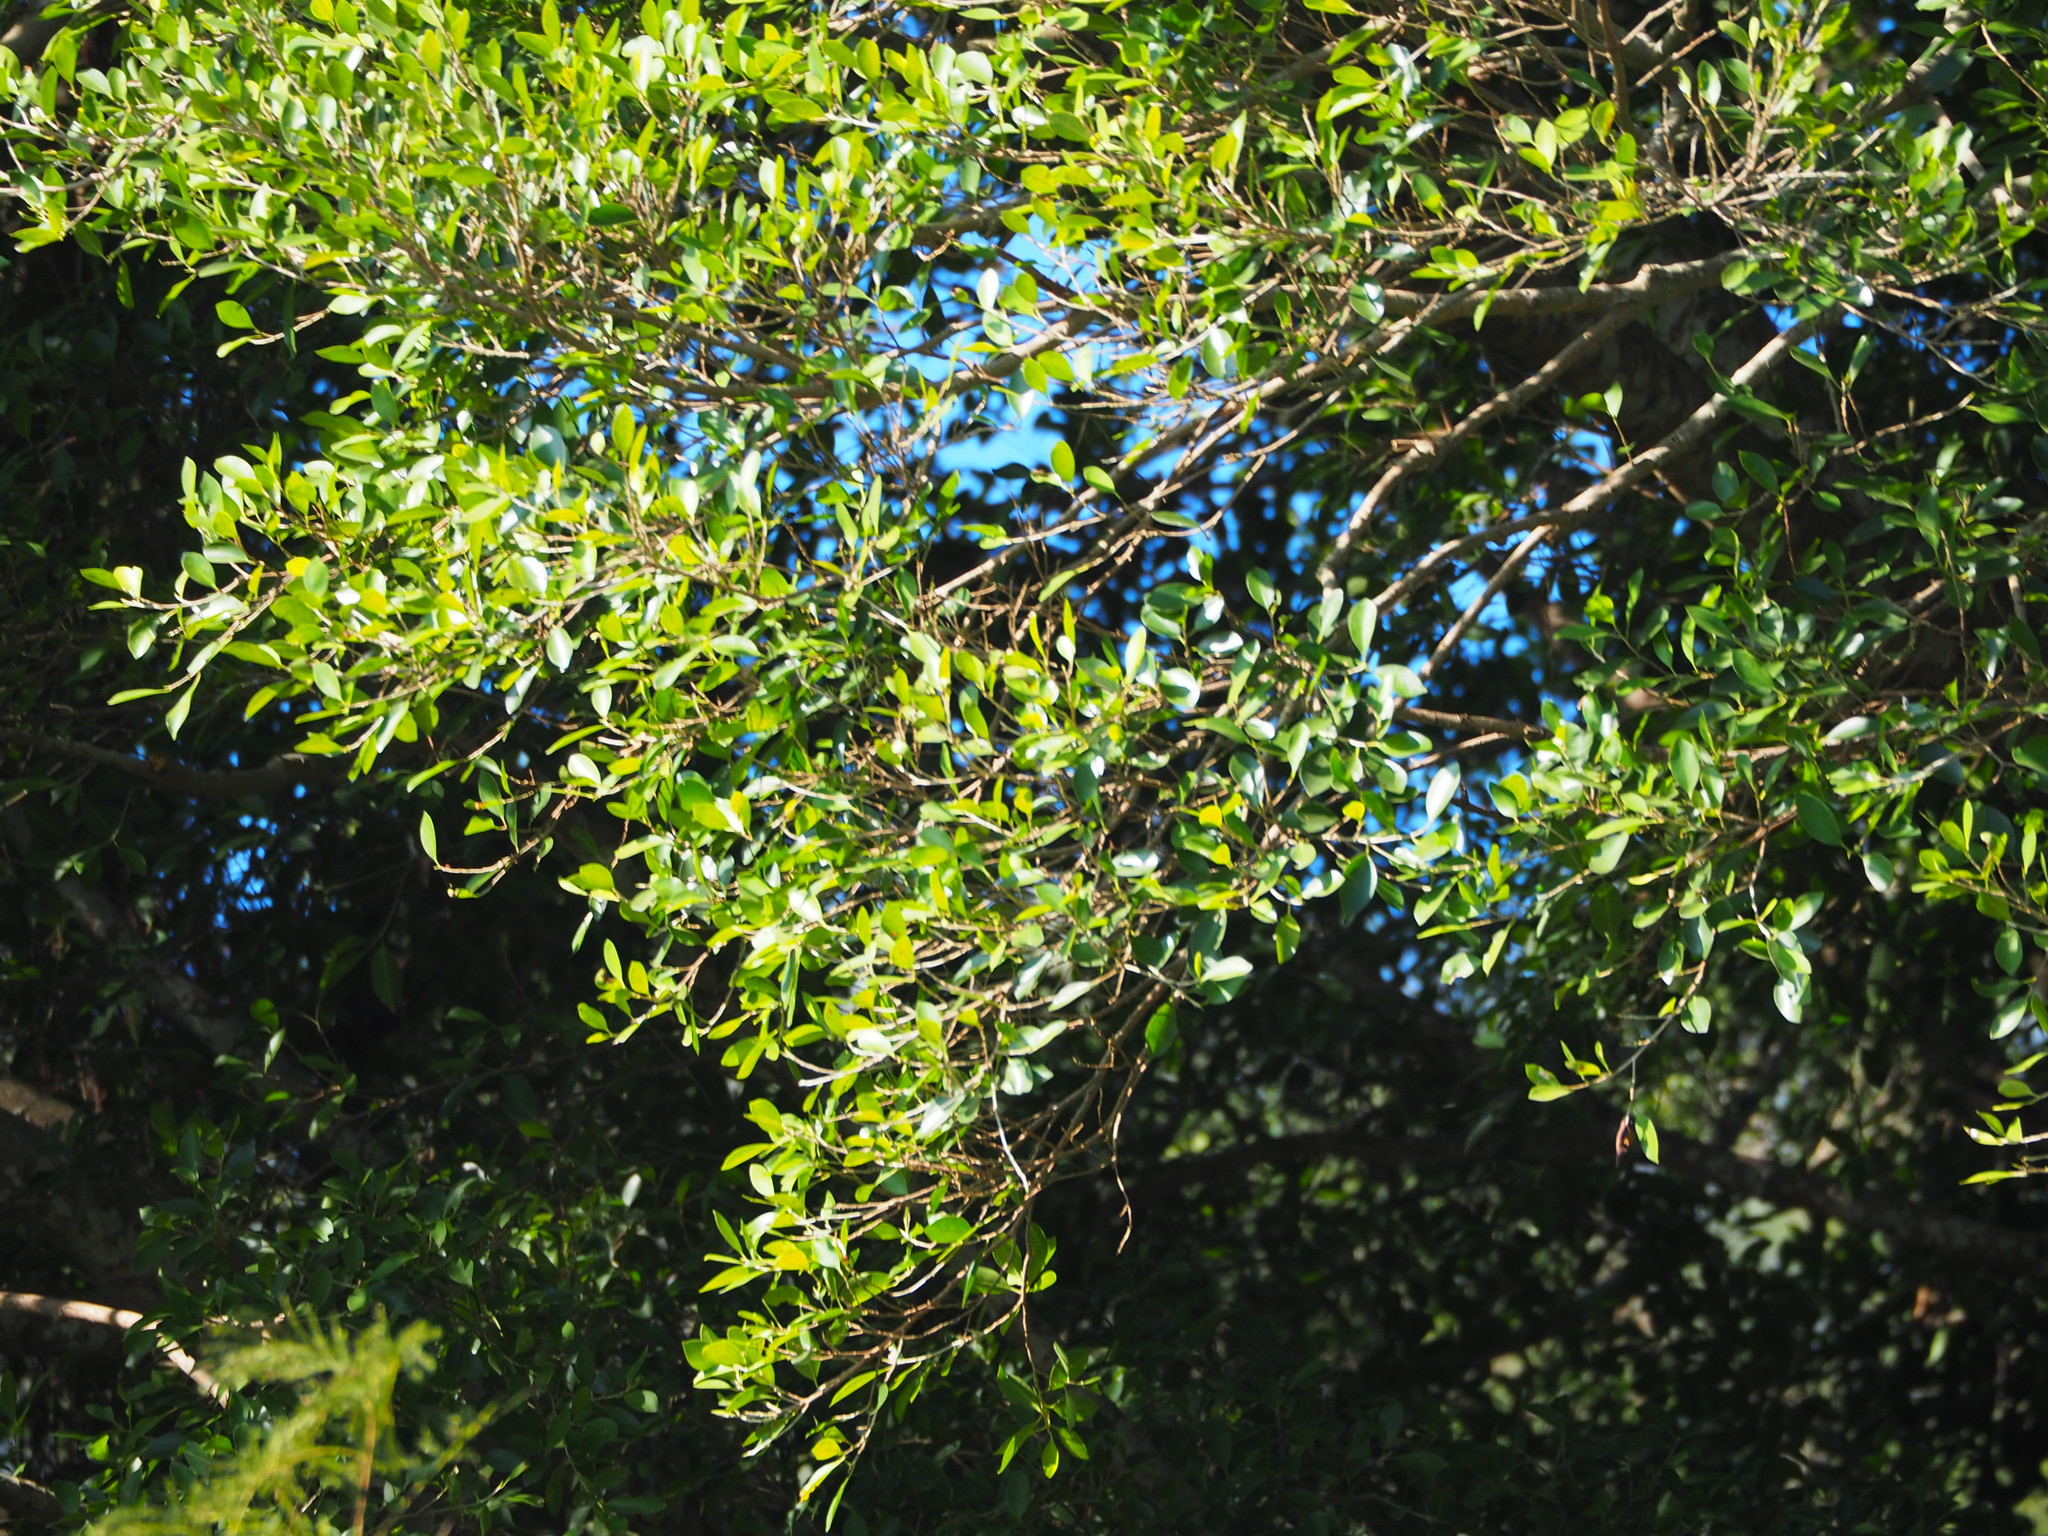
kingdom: Plantae
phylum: Tracheophyta
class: Magnoliopsida
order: Rosales
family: Moraceae
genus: Ficus
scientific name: Ficus microcarpa
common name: Chinese banyan
